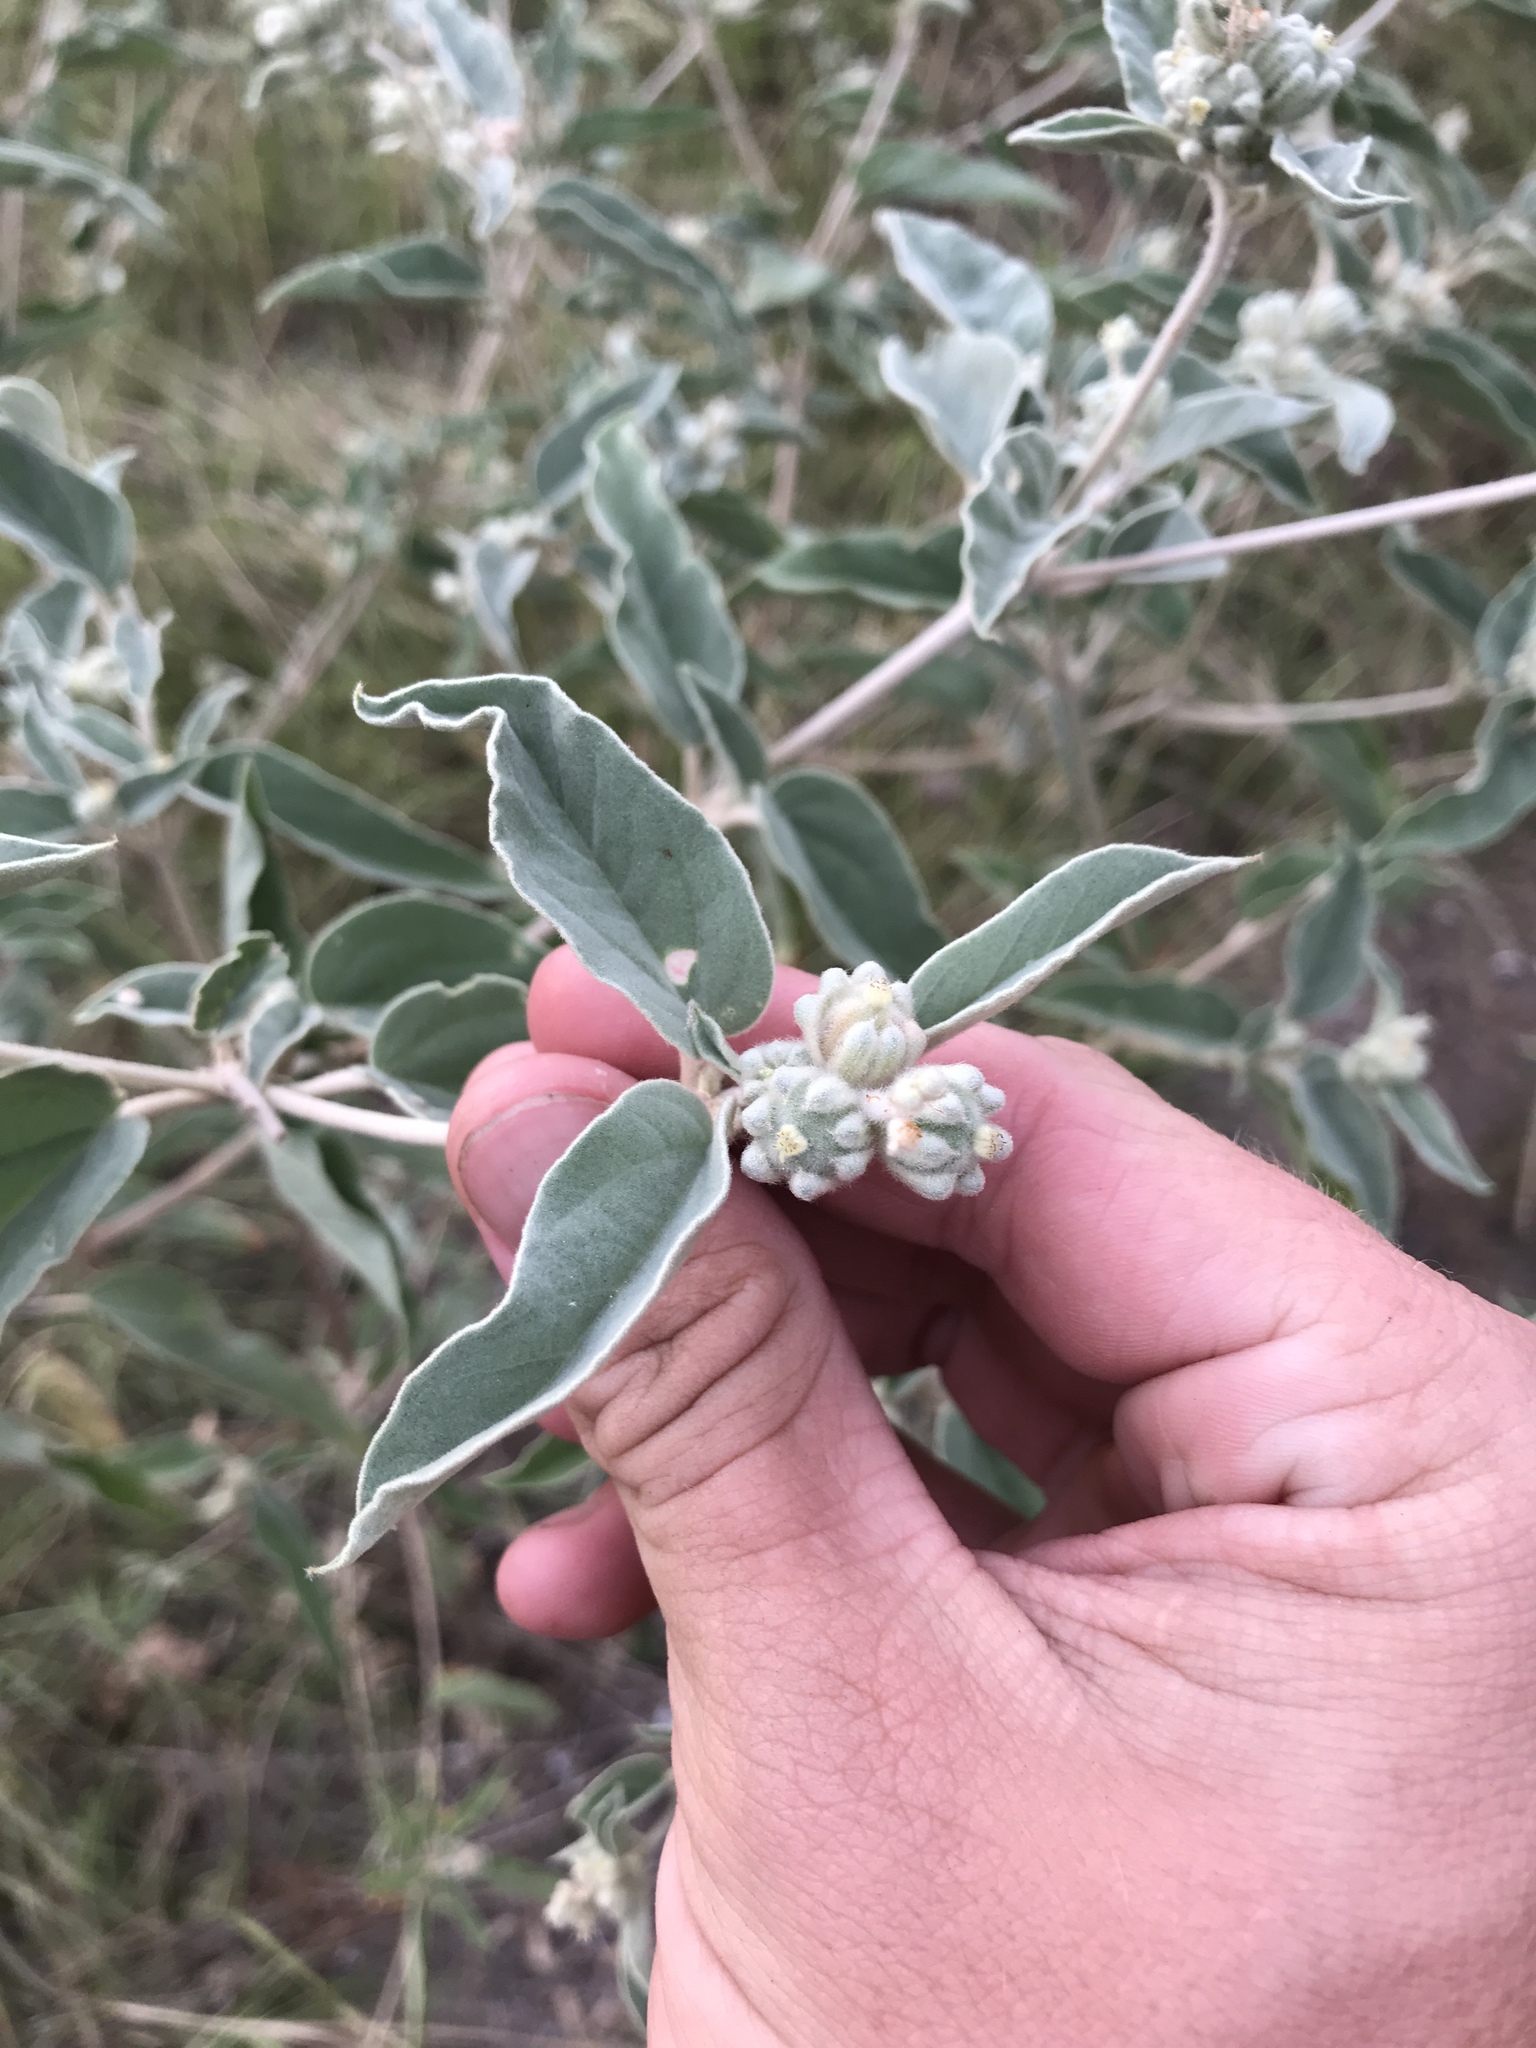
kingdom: Plantae
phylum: Tracheophyta
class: Magnoliopsida
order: Malpighiales
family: Euphorbiaceae
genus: Croton
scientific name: Croton lindheimeri
